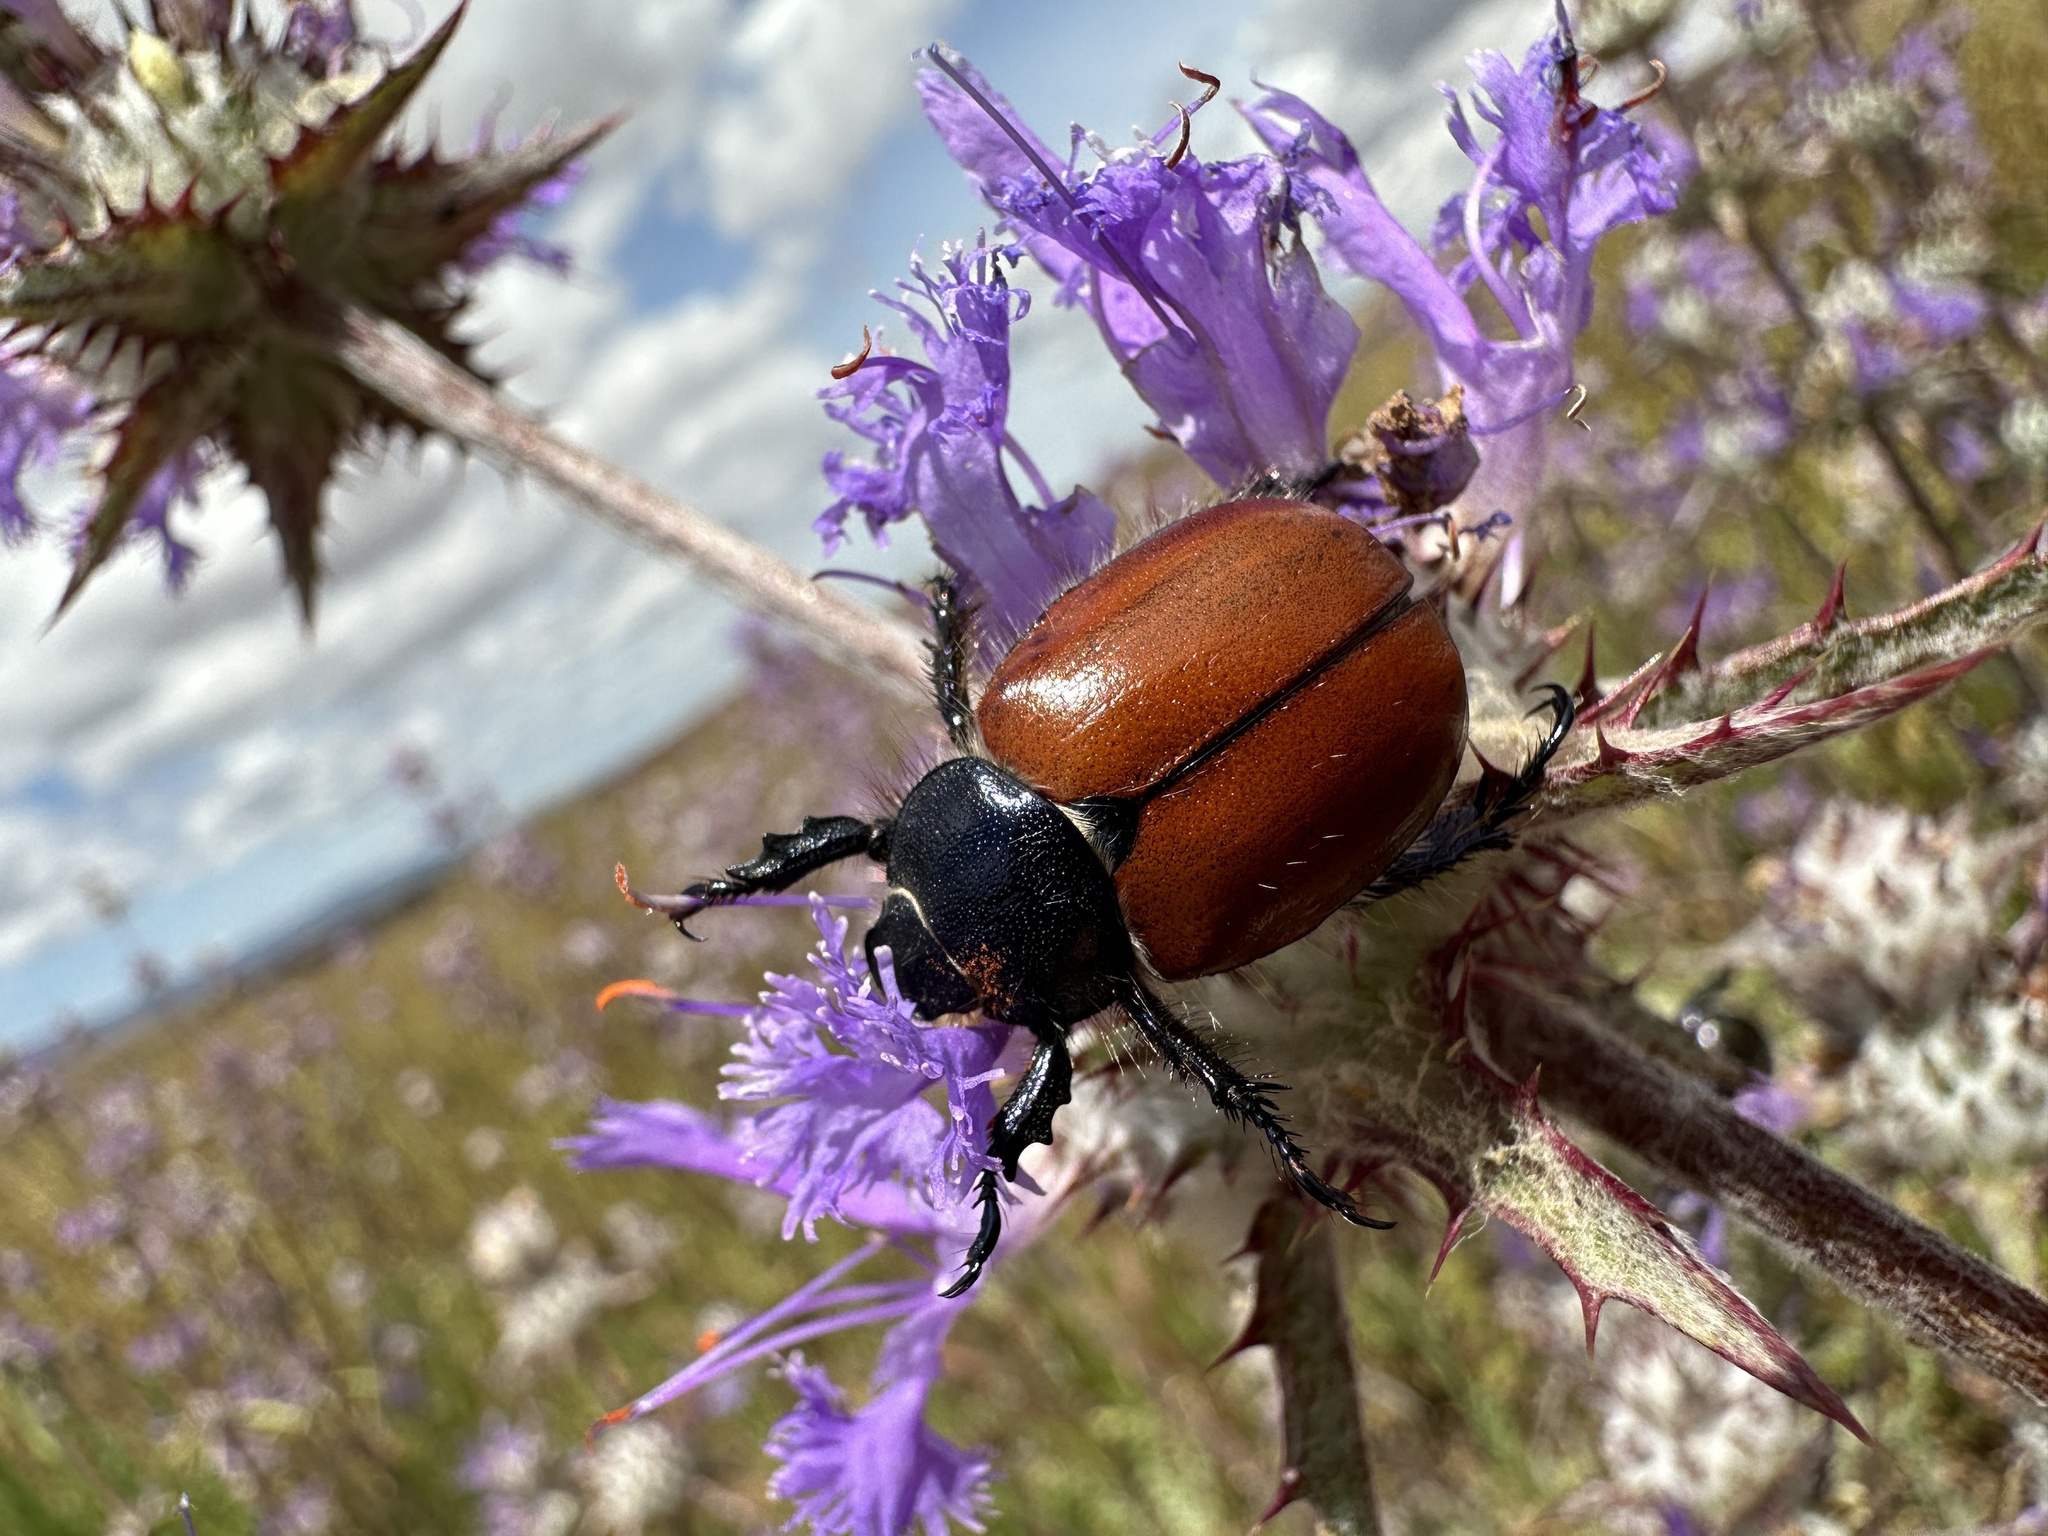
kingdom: Animalia
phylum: Arthropoda
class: Insecta
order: Coleoptera
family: Scarabaeidae
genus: Paracotalpa
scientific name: Paracotalpa ursina
